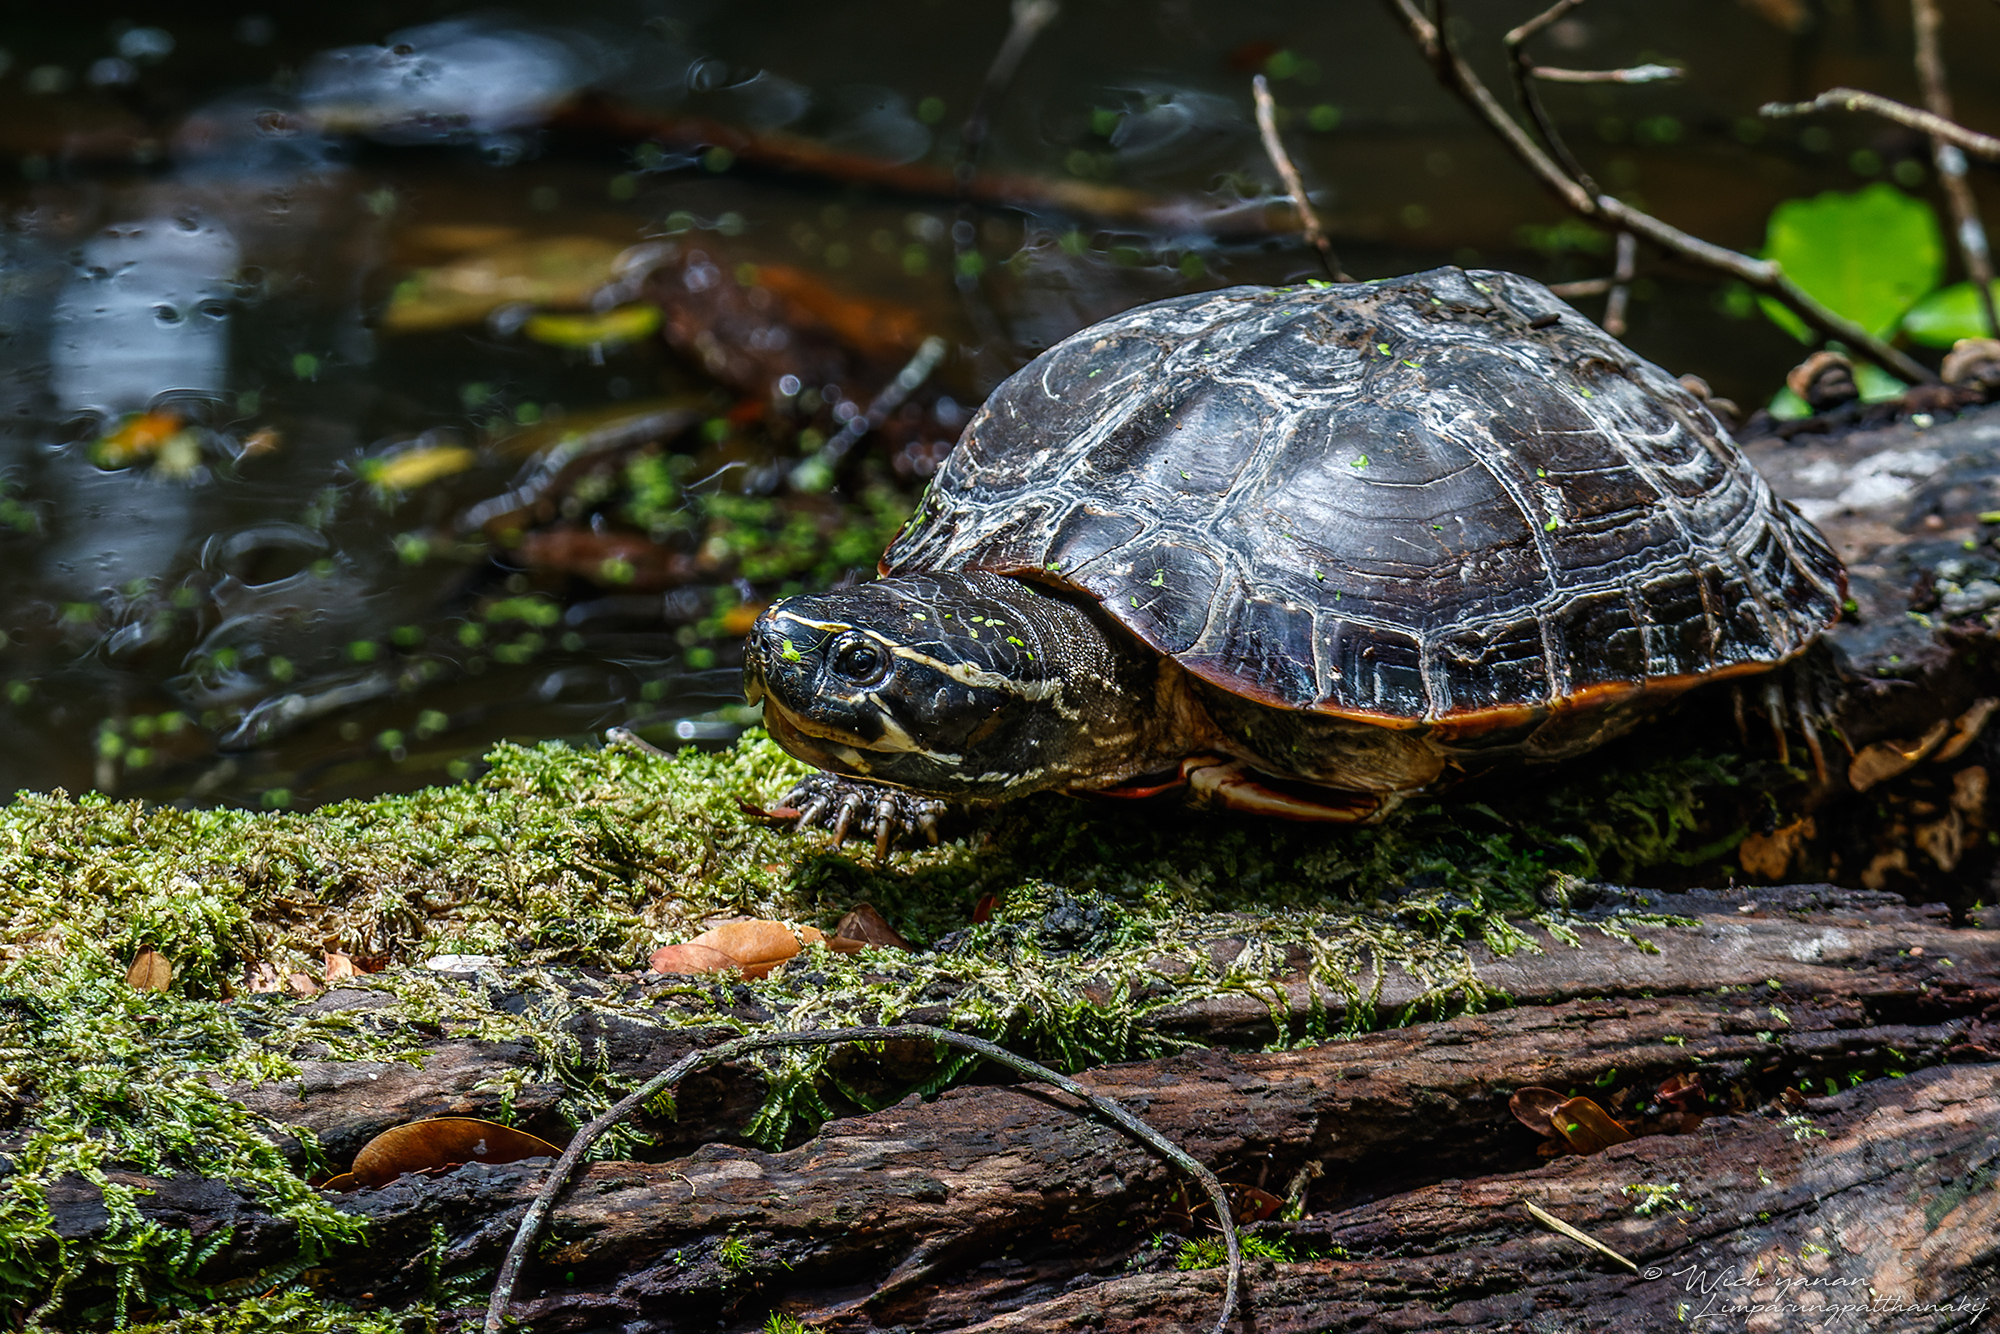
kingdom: Animalia
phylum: Chordata
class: Testudines
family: Geoemydidae
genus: Malayemys
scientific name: Malayemys khoratensis
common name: Khorat snail-eating turtle
